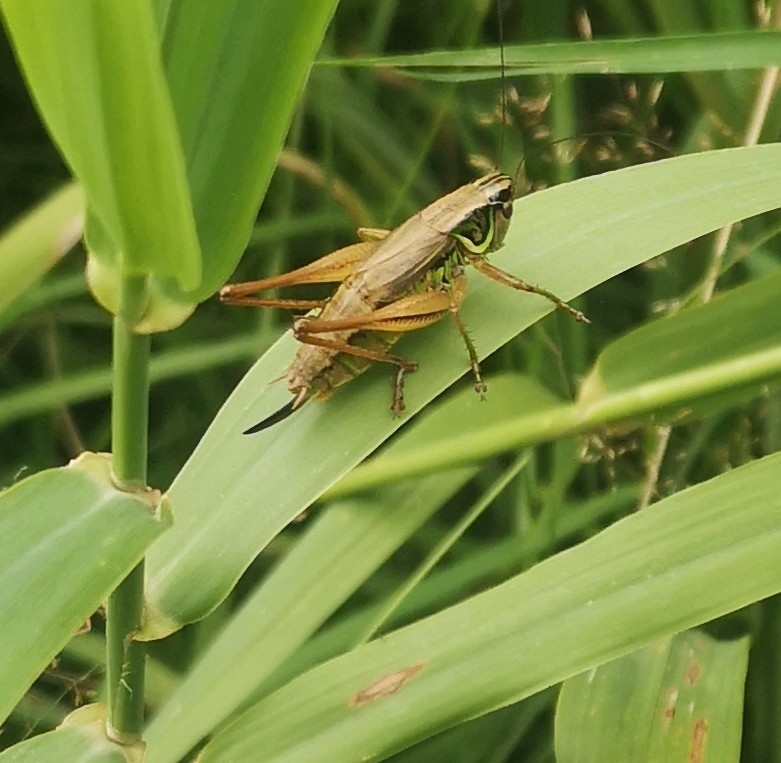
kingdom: Animalia
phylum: Arthropoda
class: Insecta
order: Orthoptera
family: Tettigoniidae
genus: Roeseliana
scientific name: Roeseliana roeselii
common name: Roesel's bush cricket
